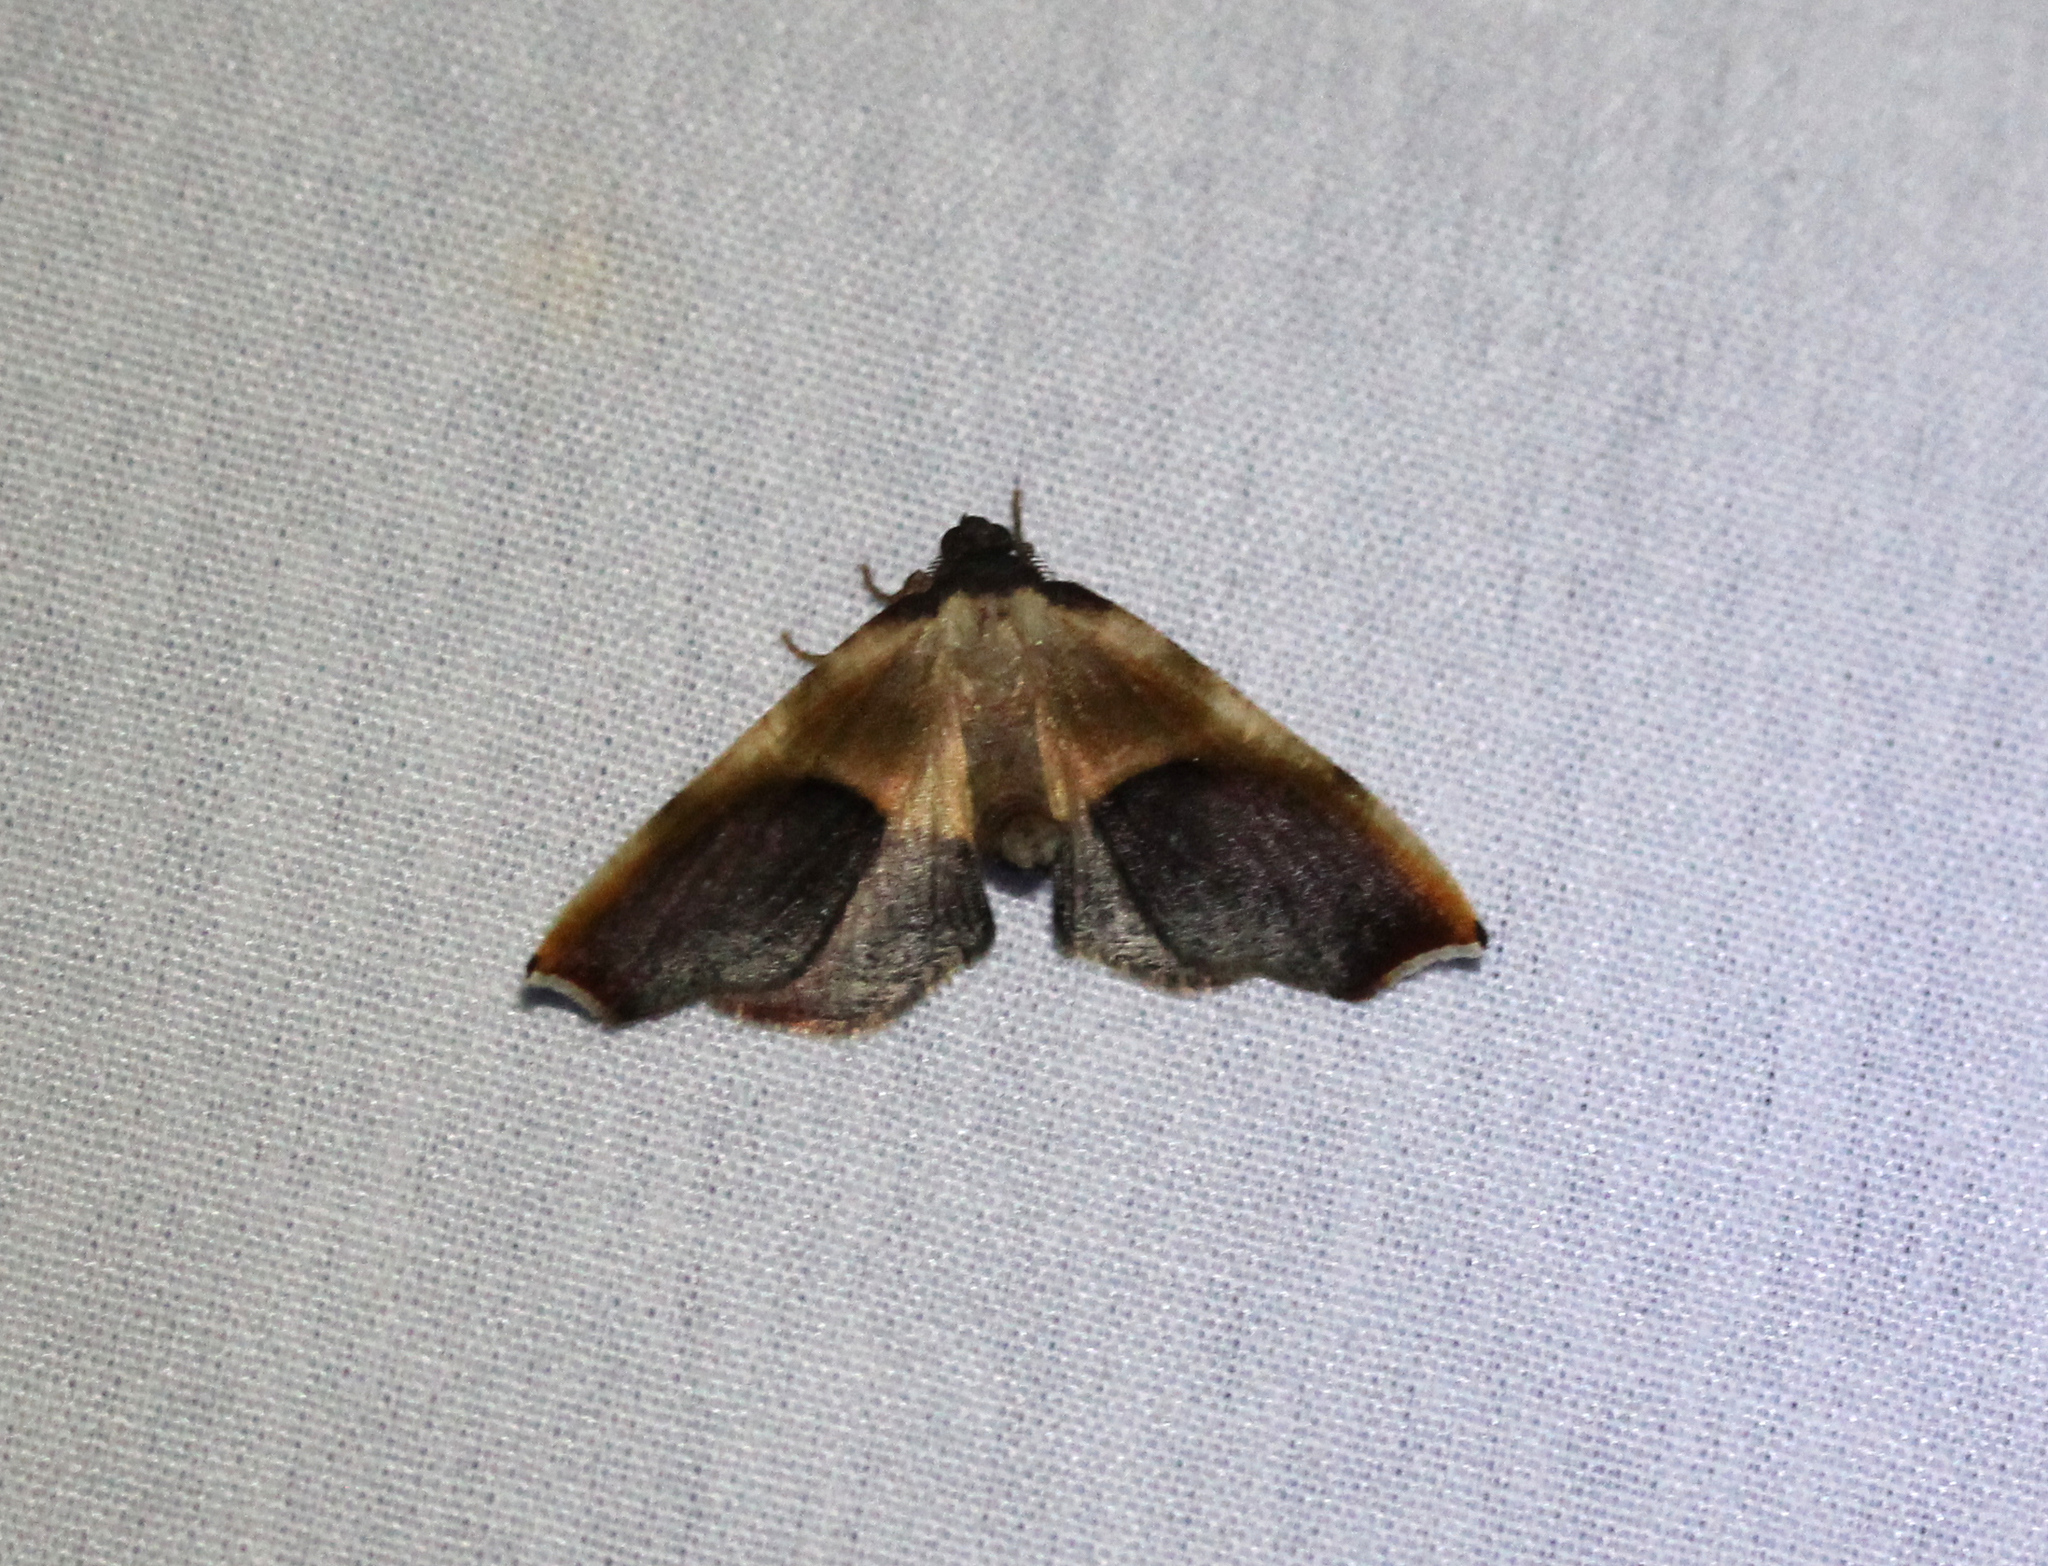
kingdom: Animalia
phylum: Arthropoda
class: Insecta
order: Lepidoptera
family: Geometridae
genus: Plagodis
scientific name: Plagodis kuetzingi
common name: Purple plagodis
